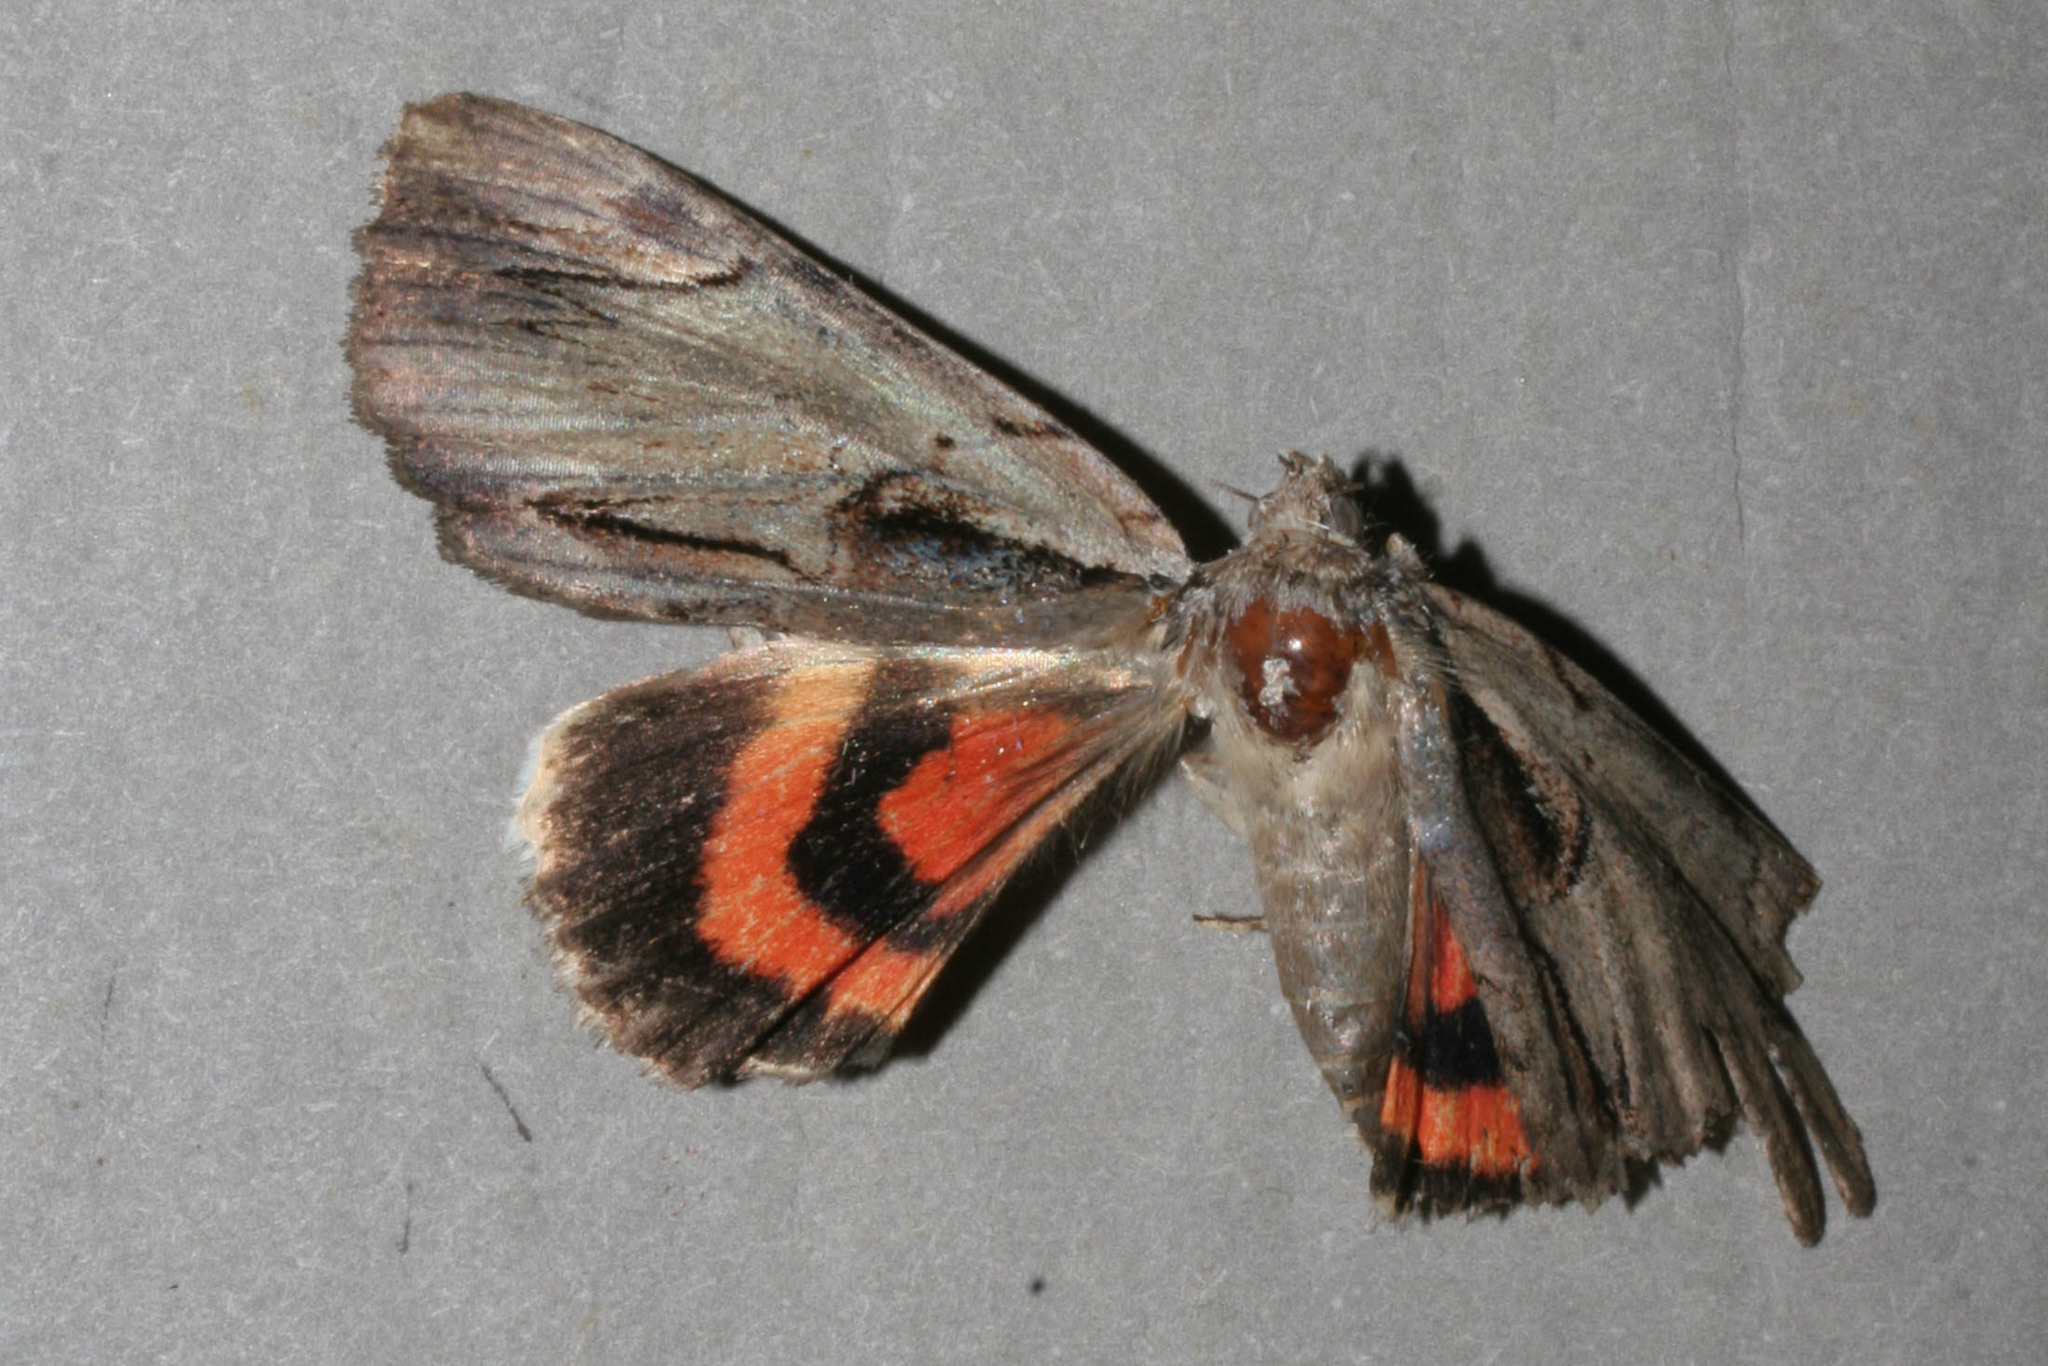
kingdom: Animalia
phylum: Arthropoda
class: Insecta
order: Lepidoptera
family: Erebidae
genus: Catocala
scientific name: Catocala ultronia
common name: Ultronia underwing
